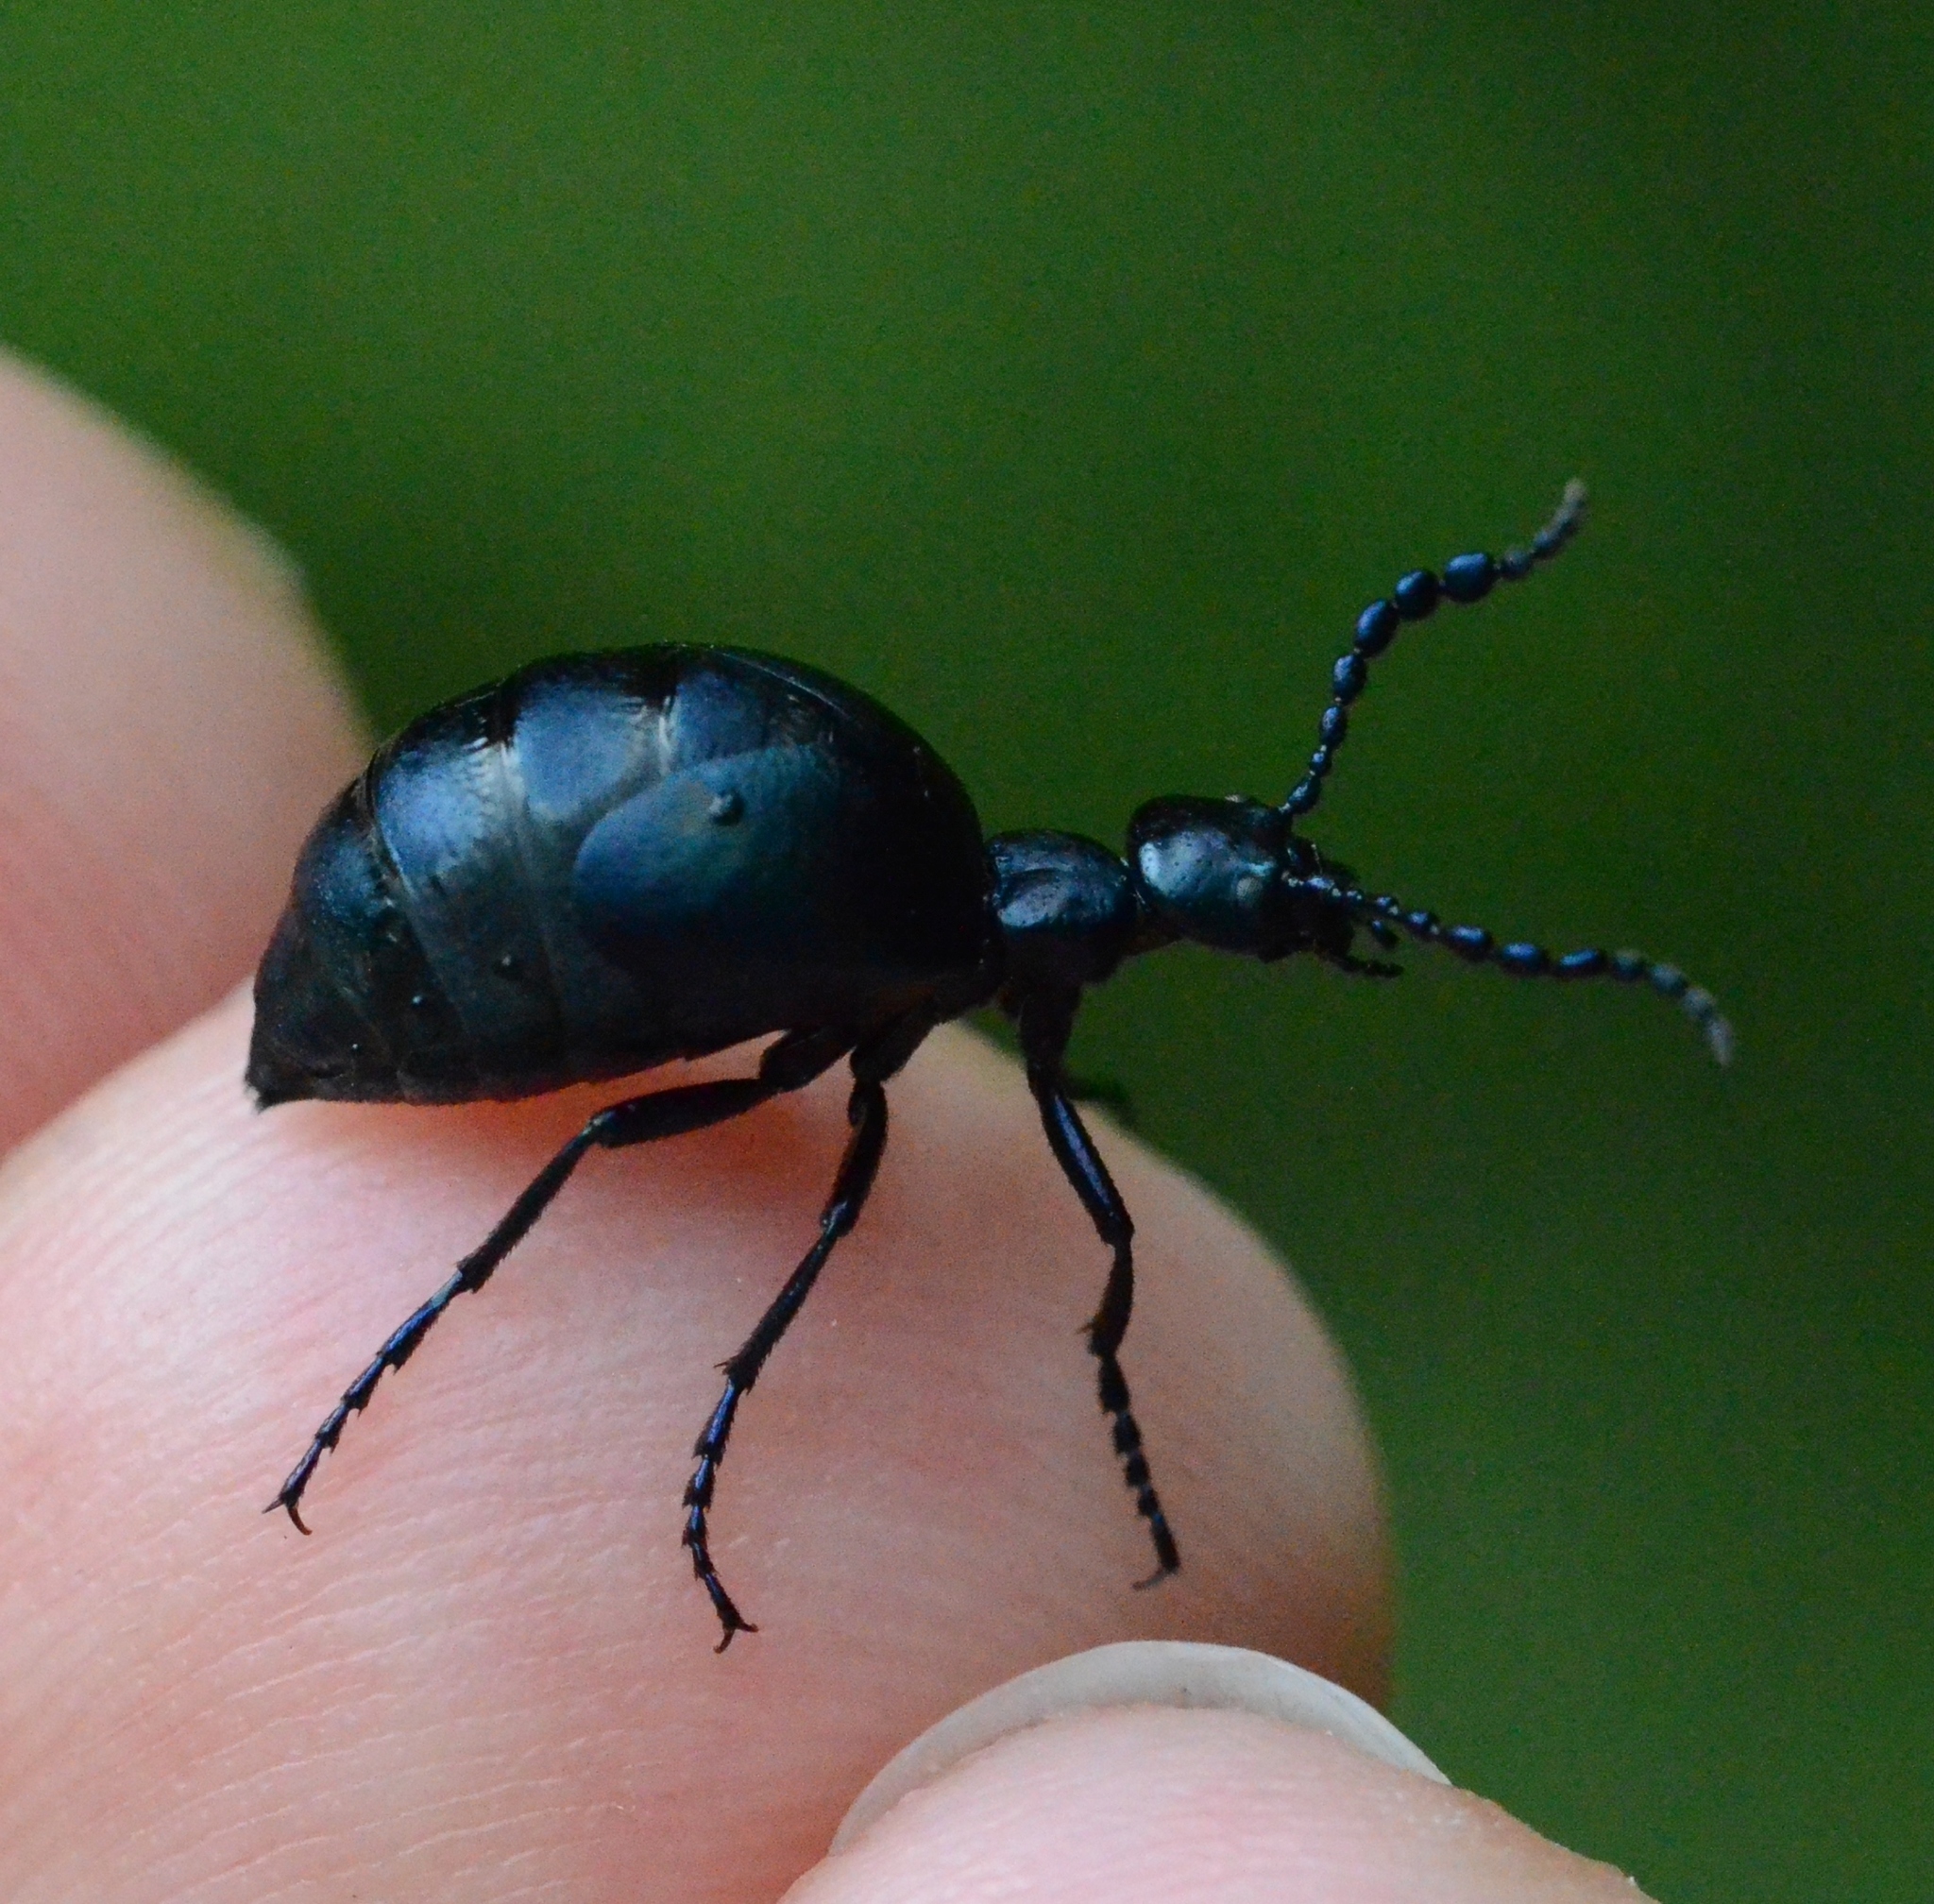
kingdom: Animalia
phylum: Arthropoda
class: Insecta
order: Coleoptera
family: Meloidae
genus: Meloe
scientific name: Meloe autumnalis
